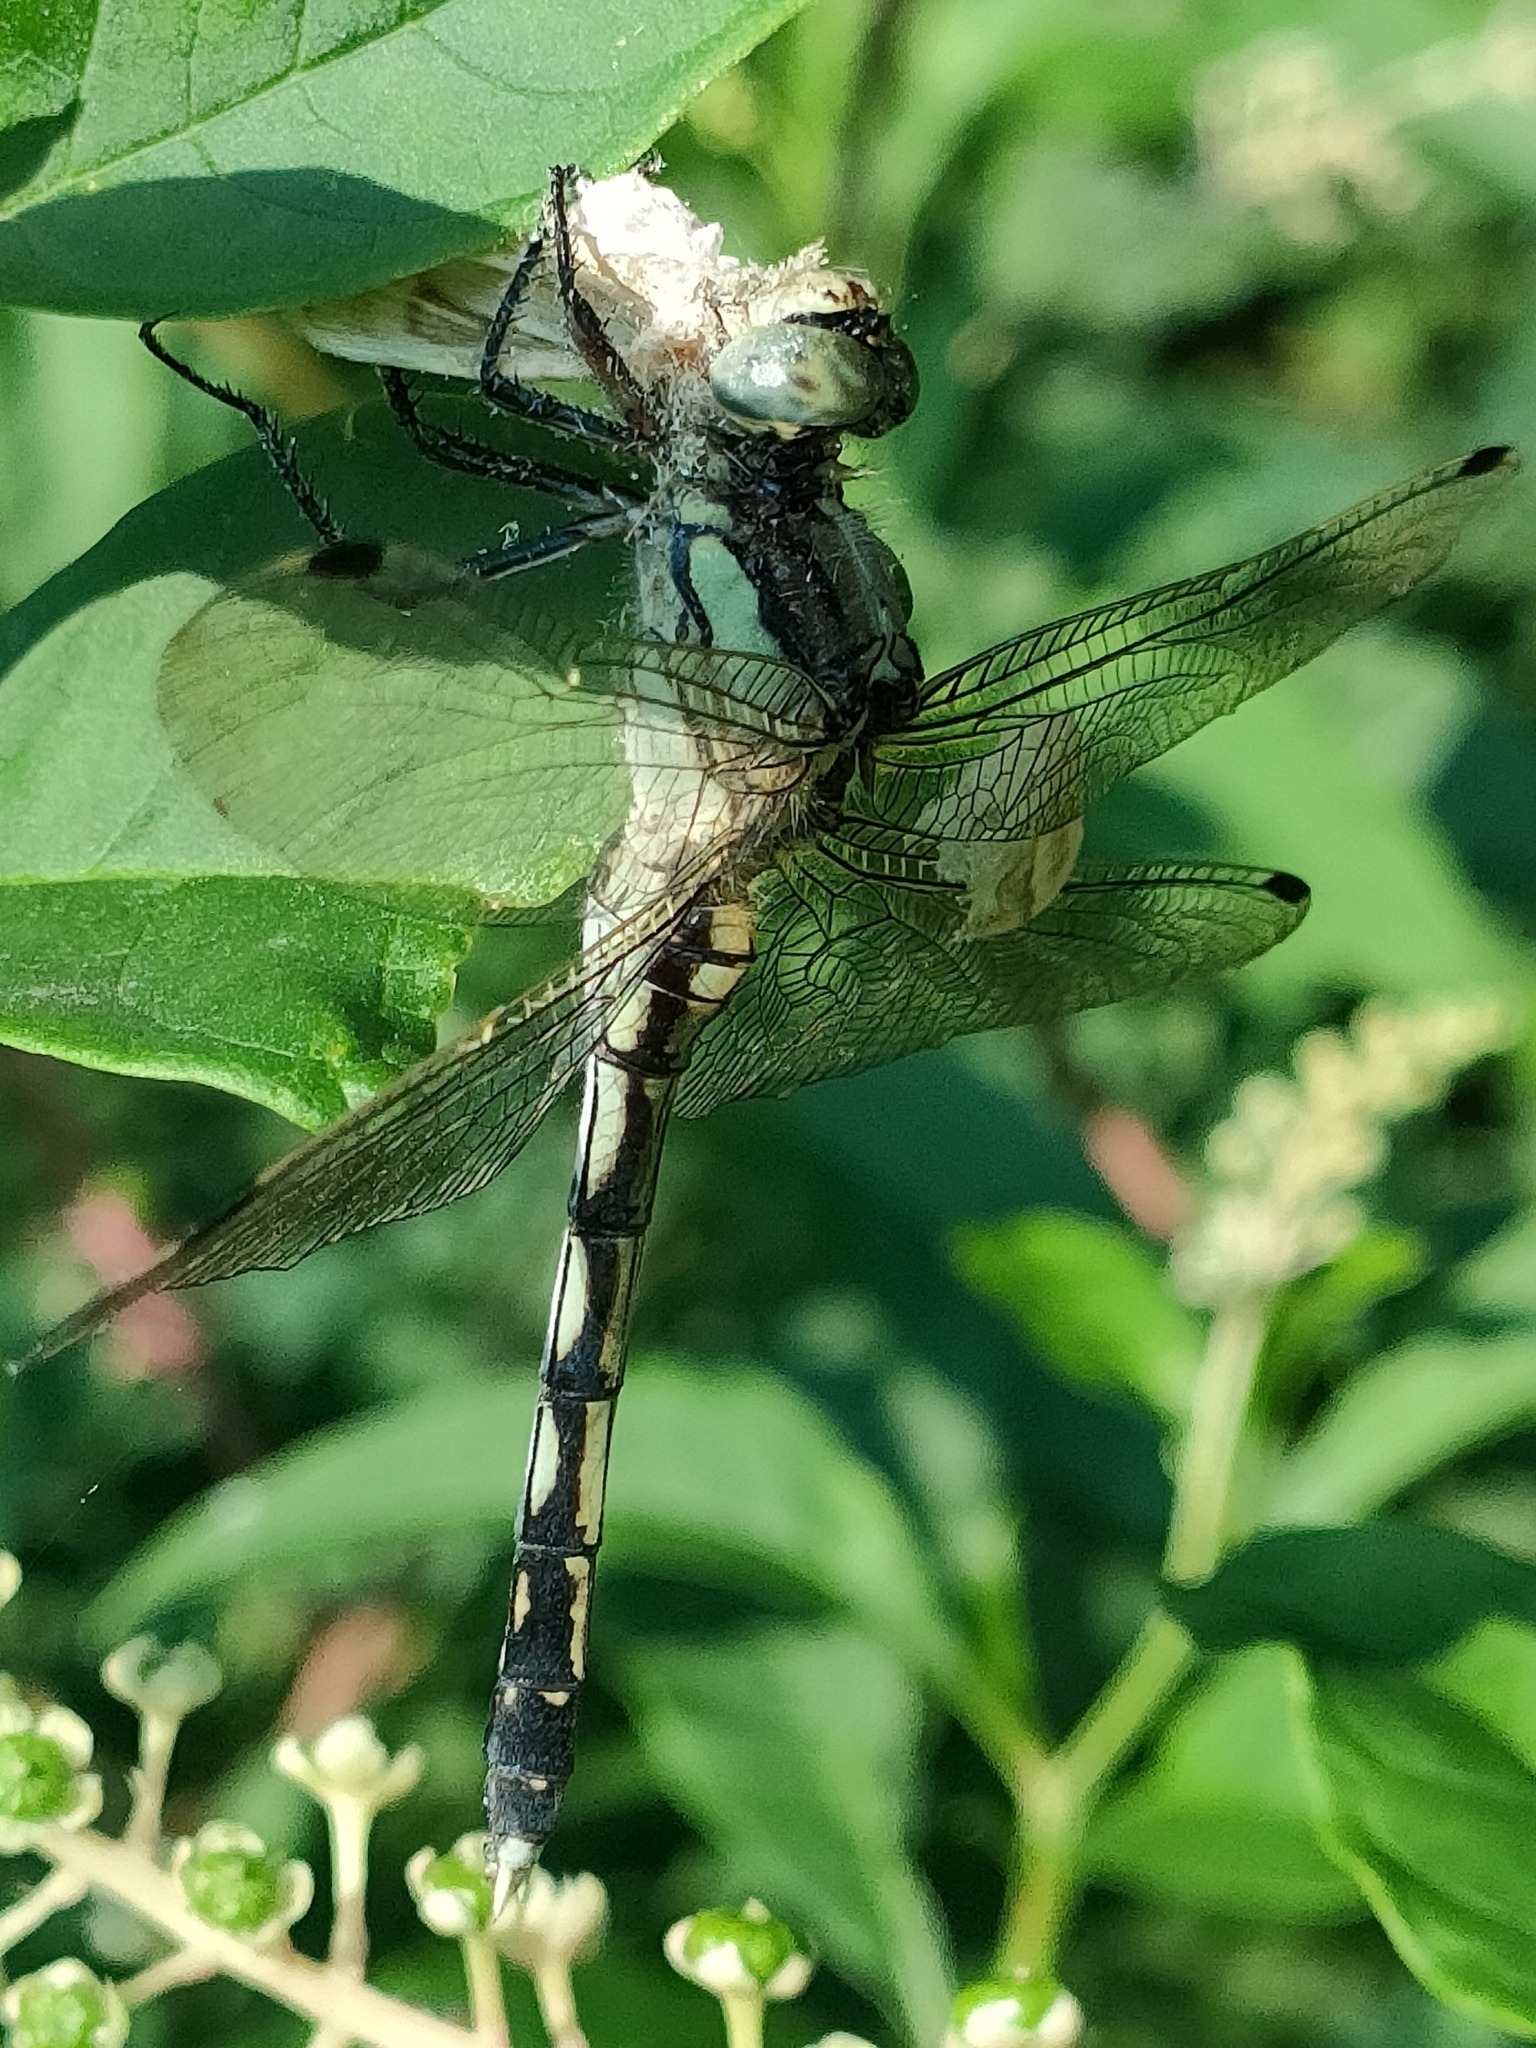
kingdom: Animalia
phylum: Arthropoda
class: Insecta
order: Odonata
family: Libellulidae
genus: Orthetrum
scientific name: Orthetrum albistylum
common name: White-tailed skimmer
